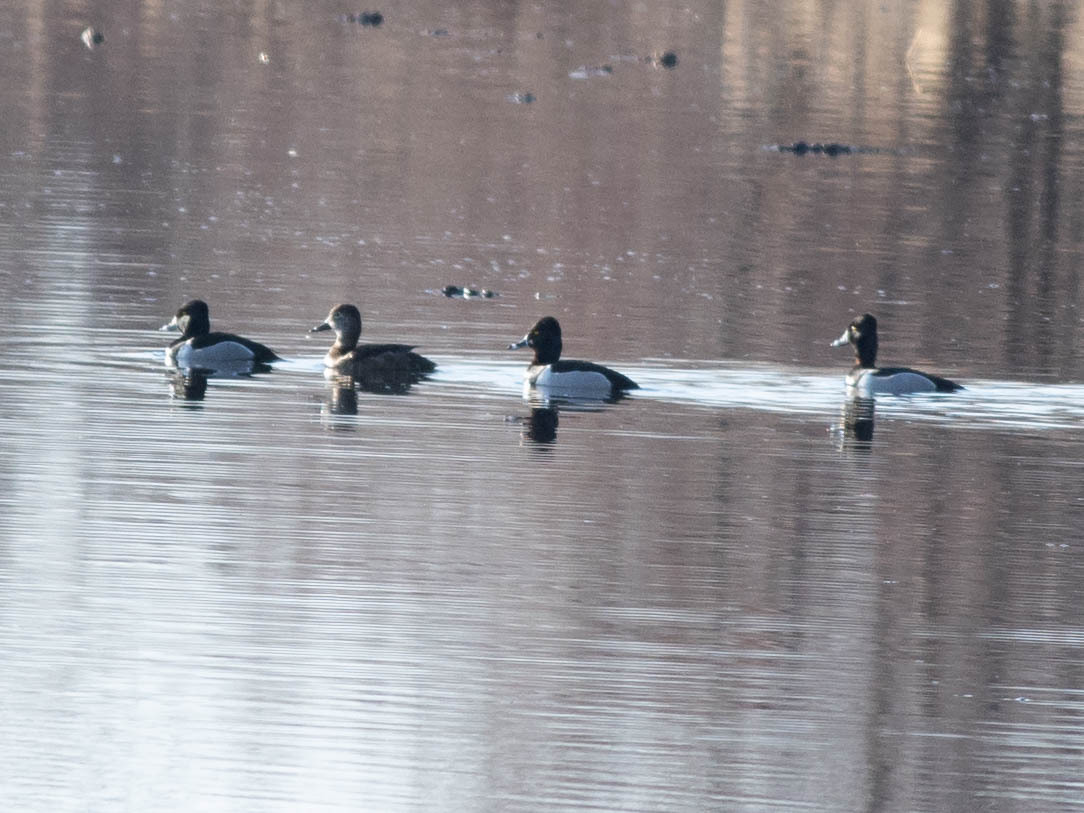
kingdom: Animalia
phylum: Chordata
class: Aves
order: Anseriformes
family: Anatidae
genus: Aythya
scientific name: Aythya collaris
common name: Ring-necked duck
